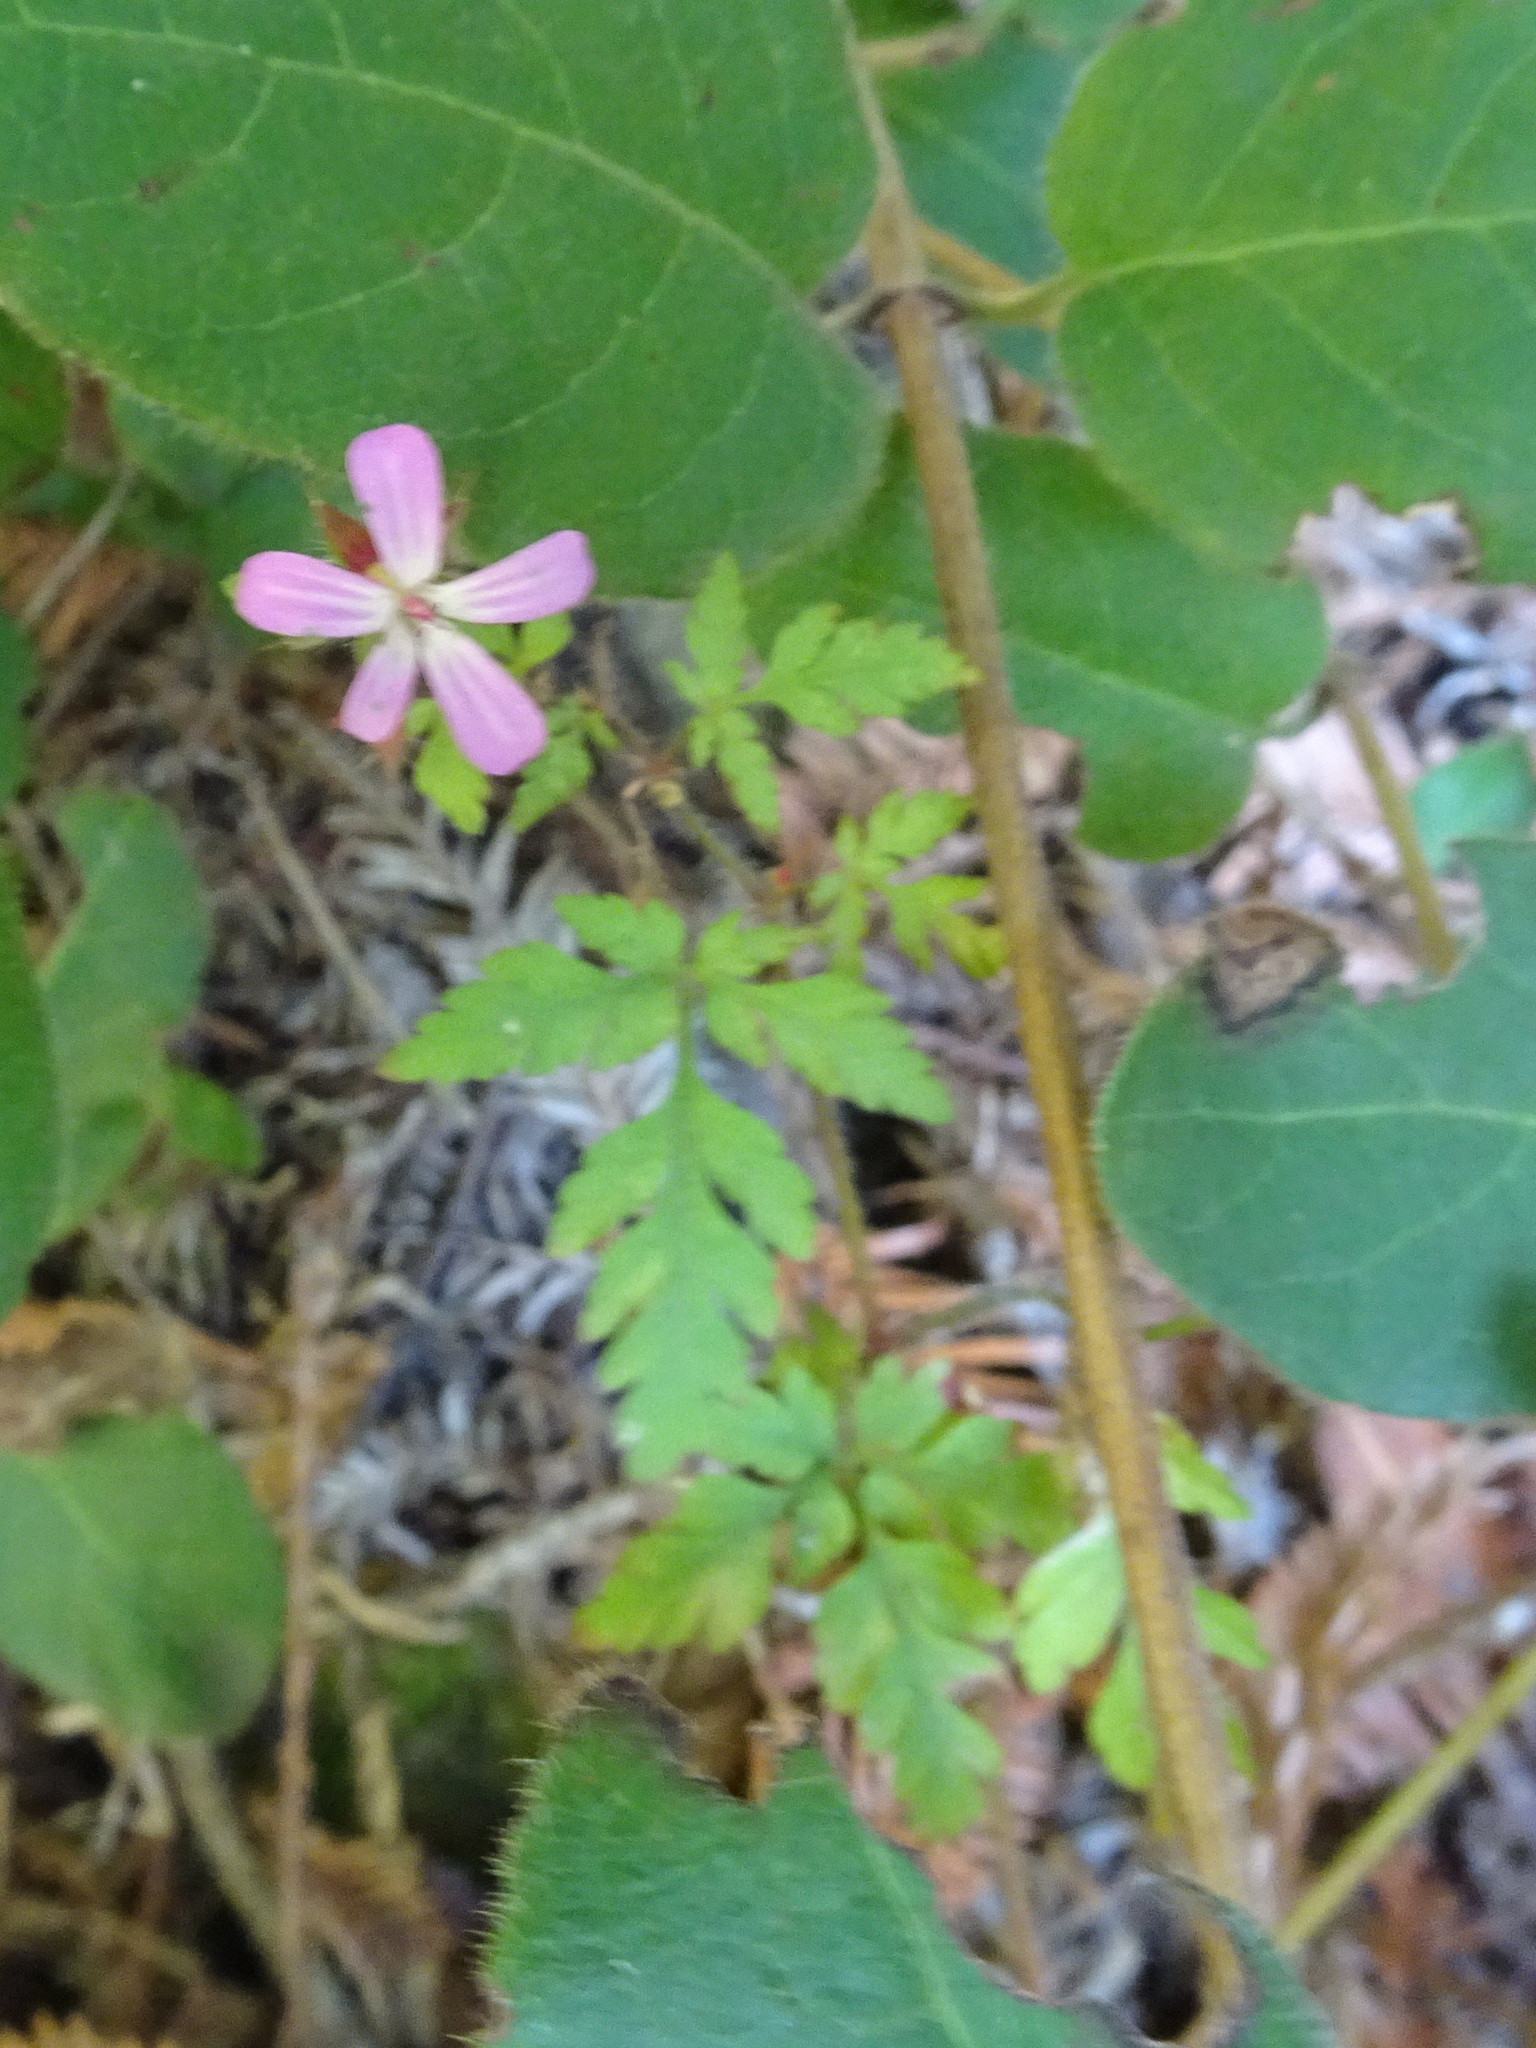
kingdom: Plantae
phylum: Tracheophyta
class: Magnoliopsida
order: Geraniales
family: Geraniaceae
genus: Geranium
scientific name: Geranium robertianum
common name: Herb-robert
